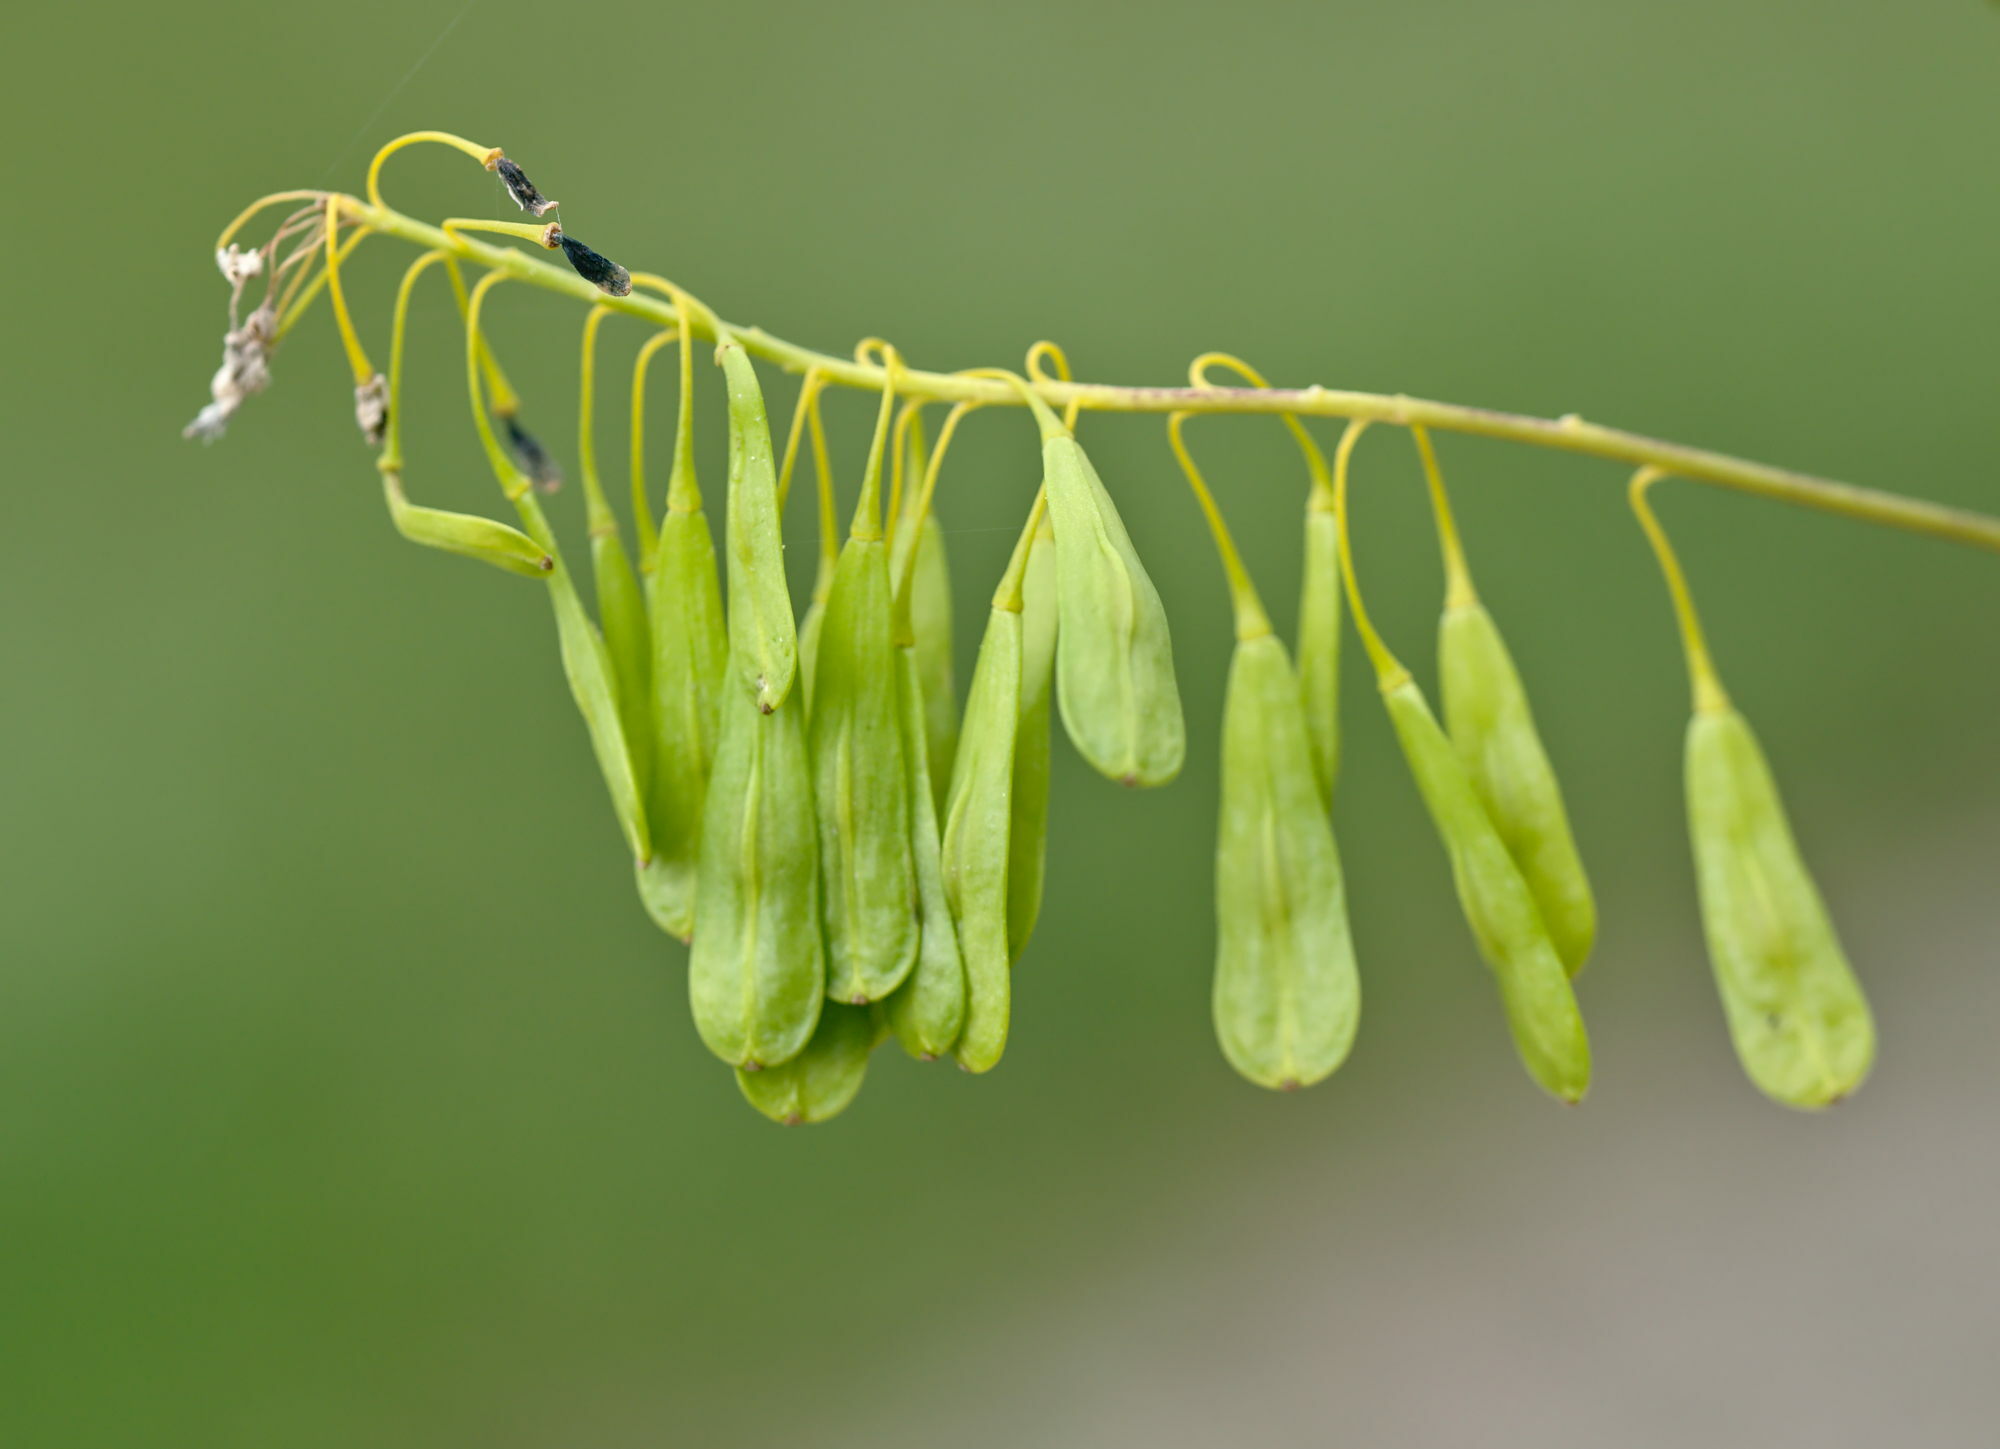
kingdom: Plantae
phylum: Tracheophyta
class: Magnoliopsida
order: Brassicales
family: Brassicaceae
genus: Isatis
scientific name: Isatis tinctoria
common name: Woad
